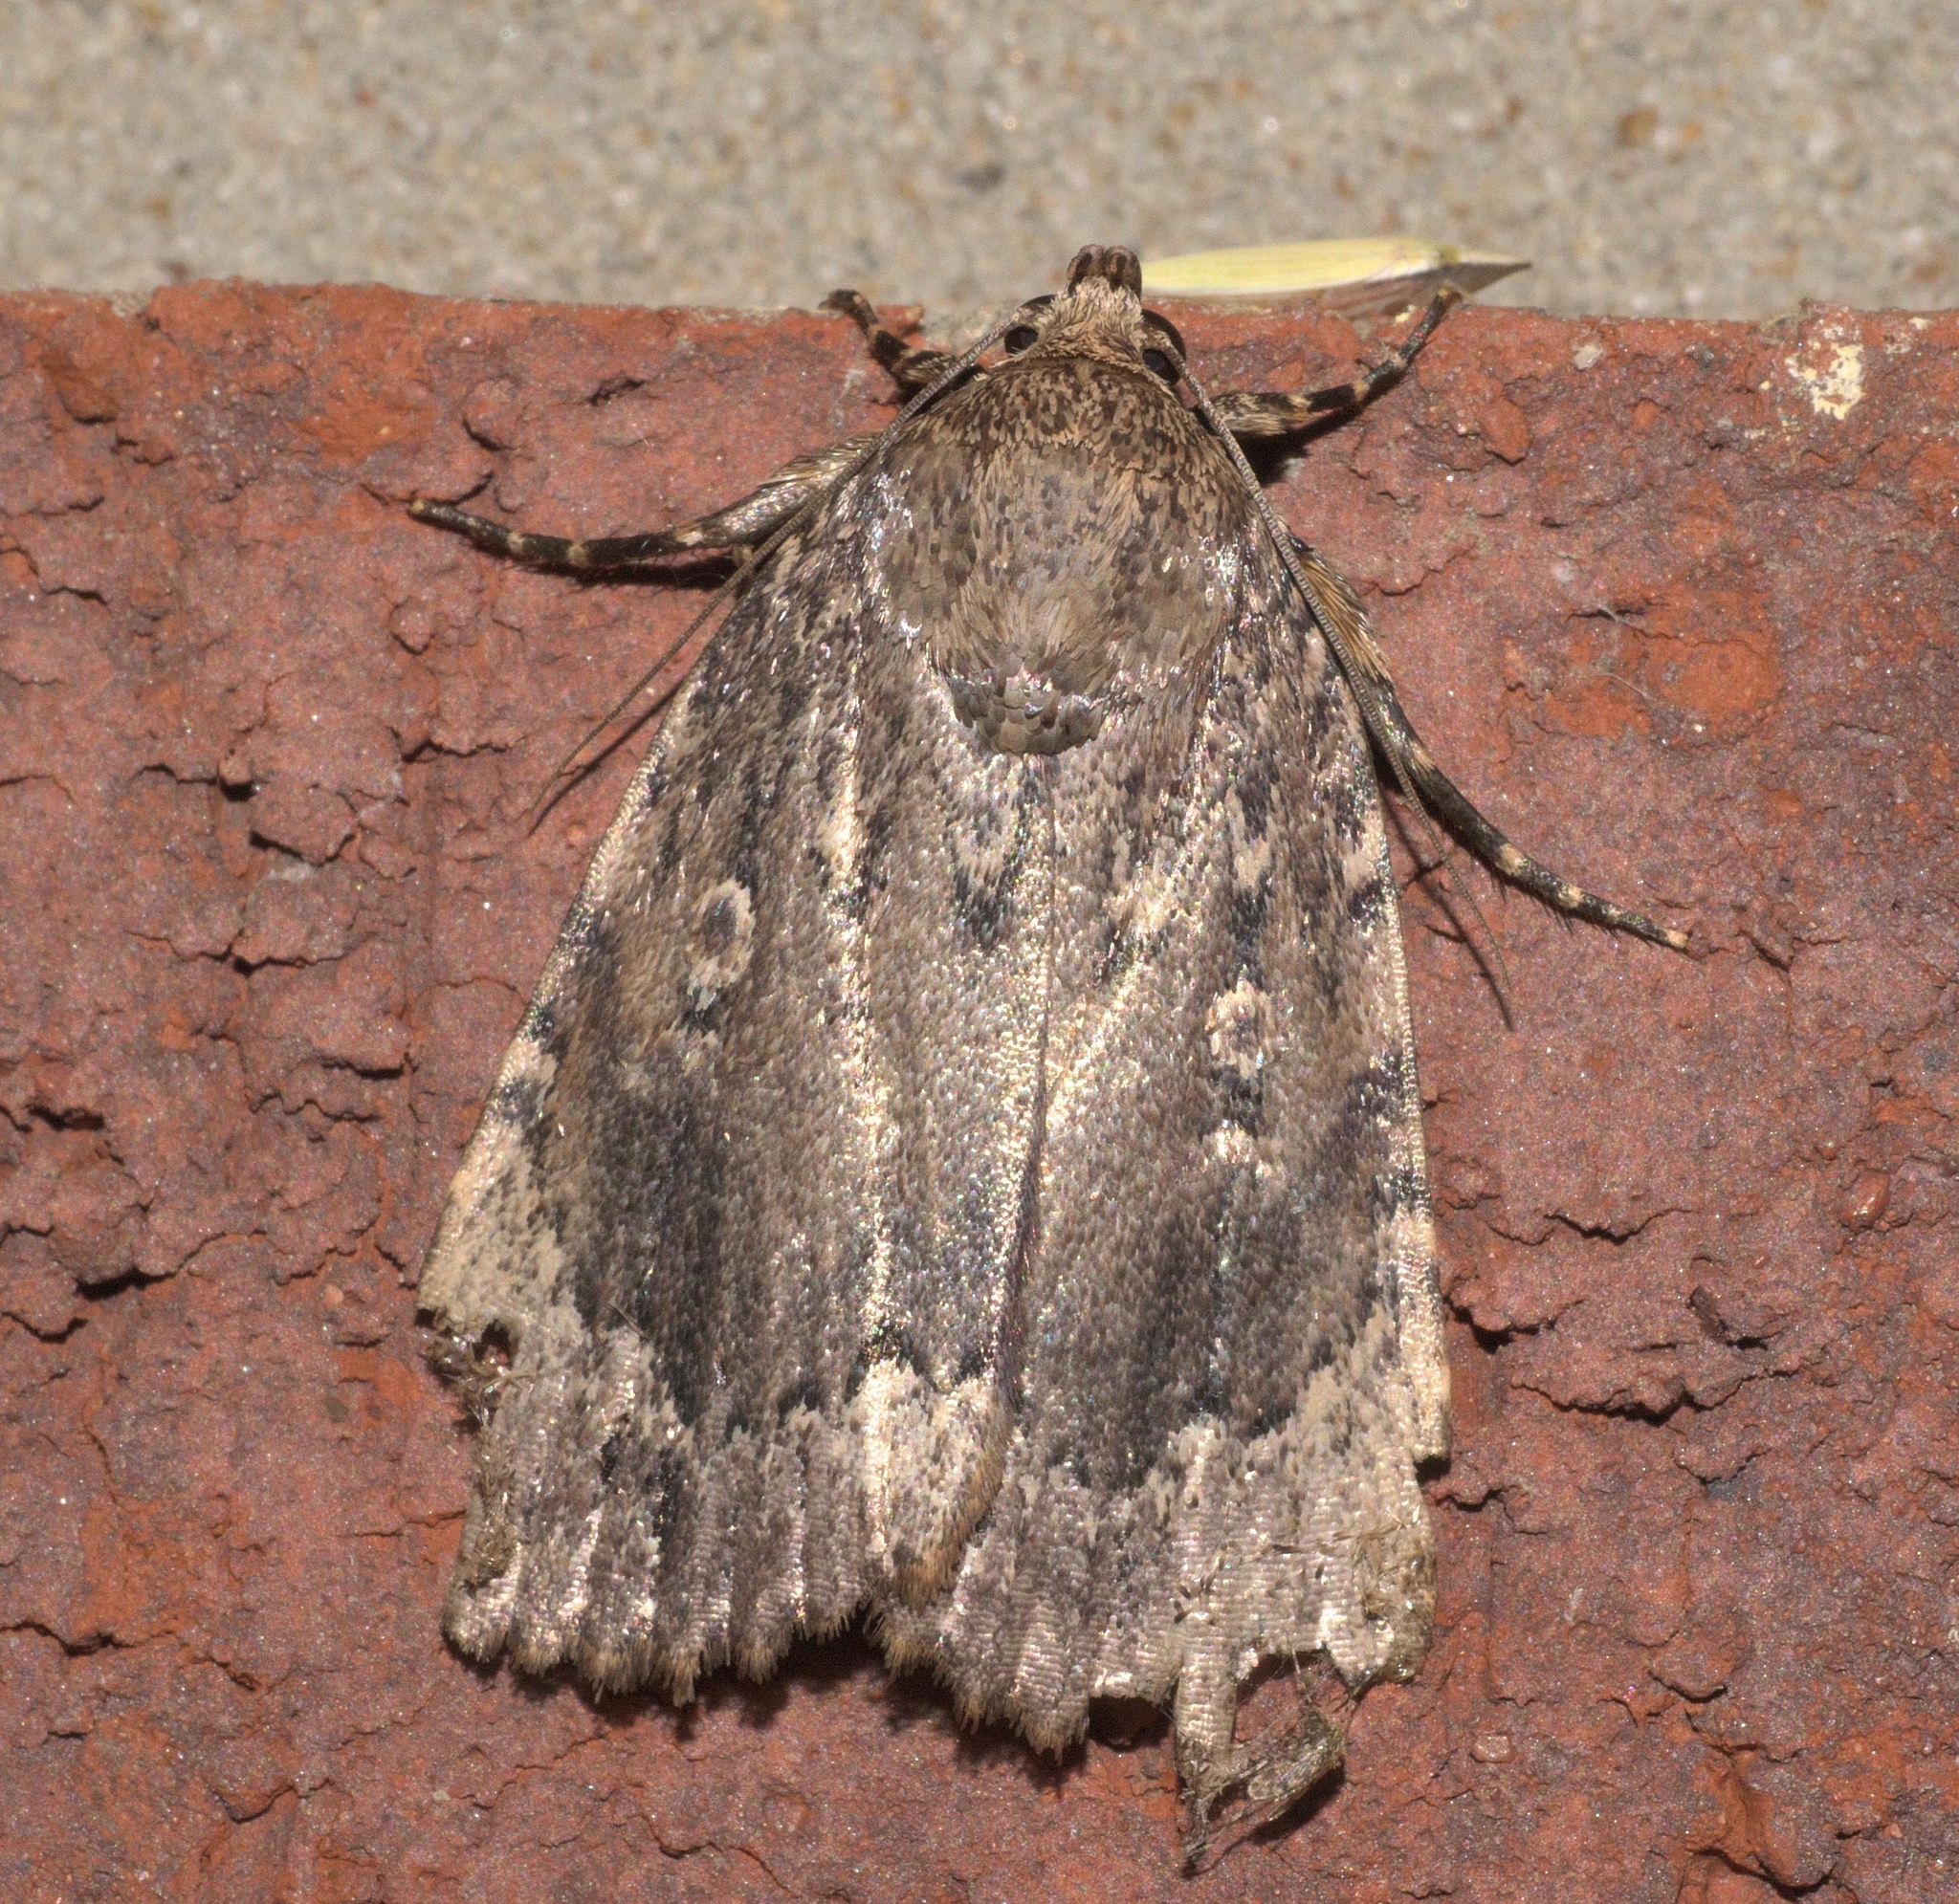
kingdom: Animalia
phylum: Arthropoda
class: Insecta
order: Lepidoptera
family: Noctuidae
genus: Amphipyra
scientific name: Amphipyra pyramidoides
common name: American copper underwing
